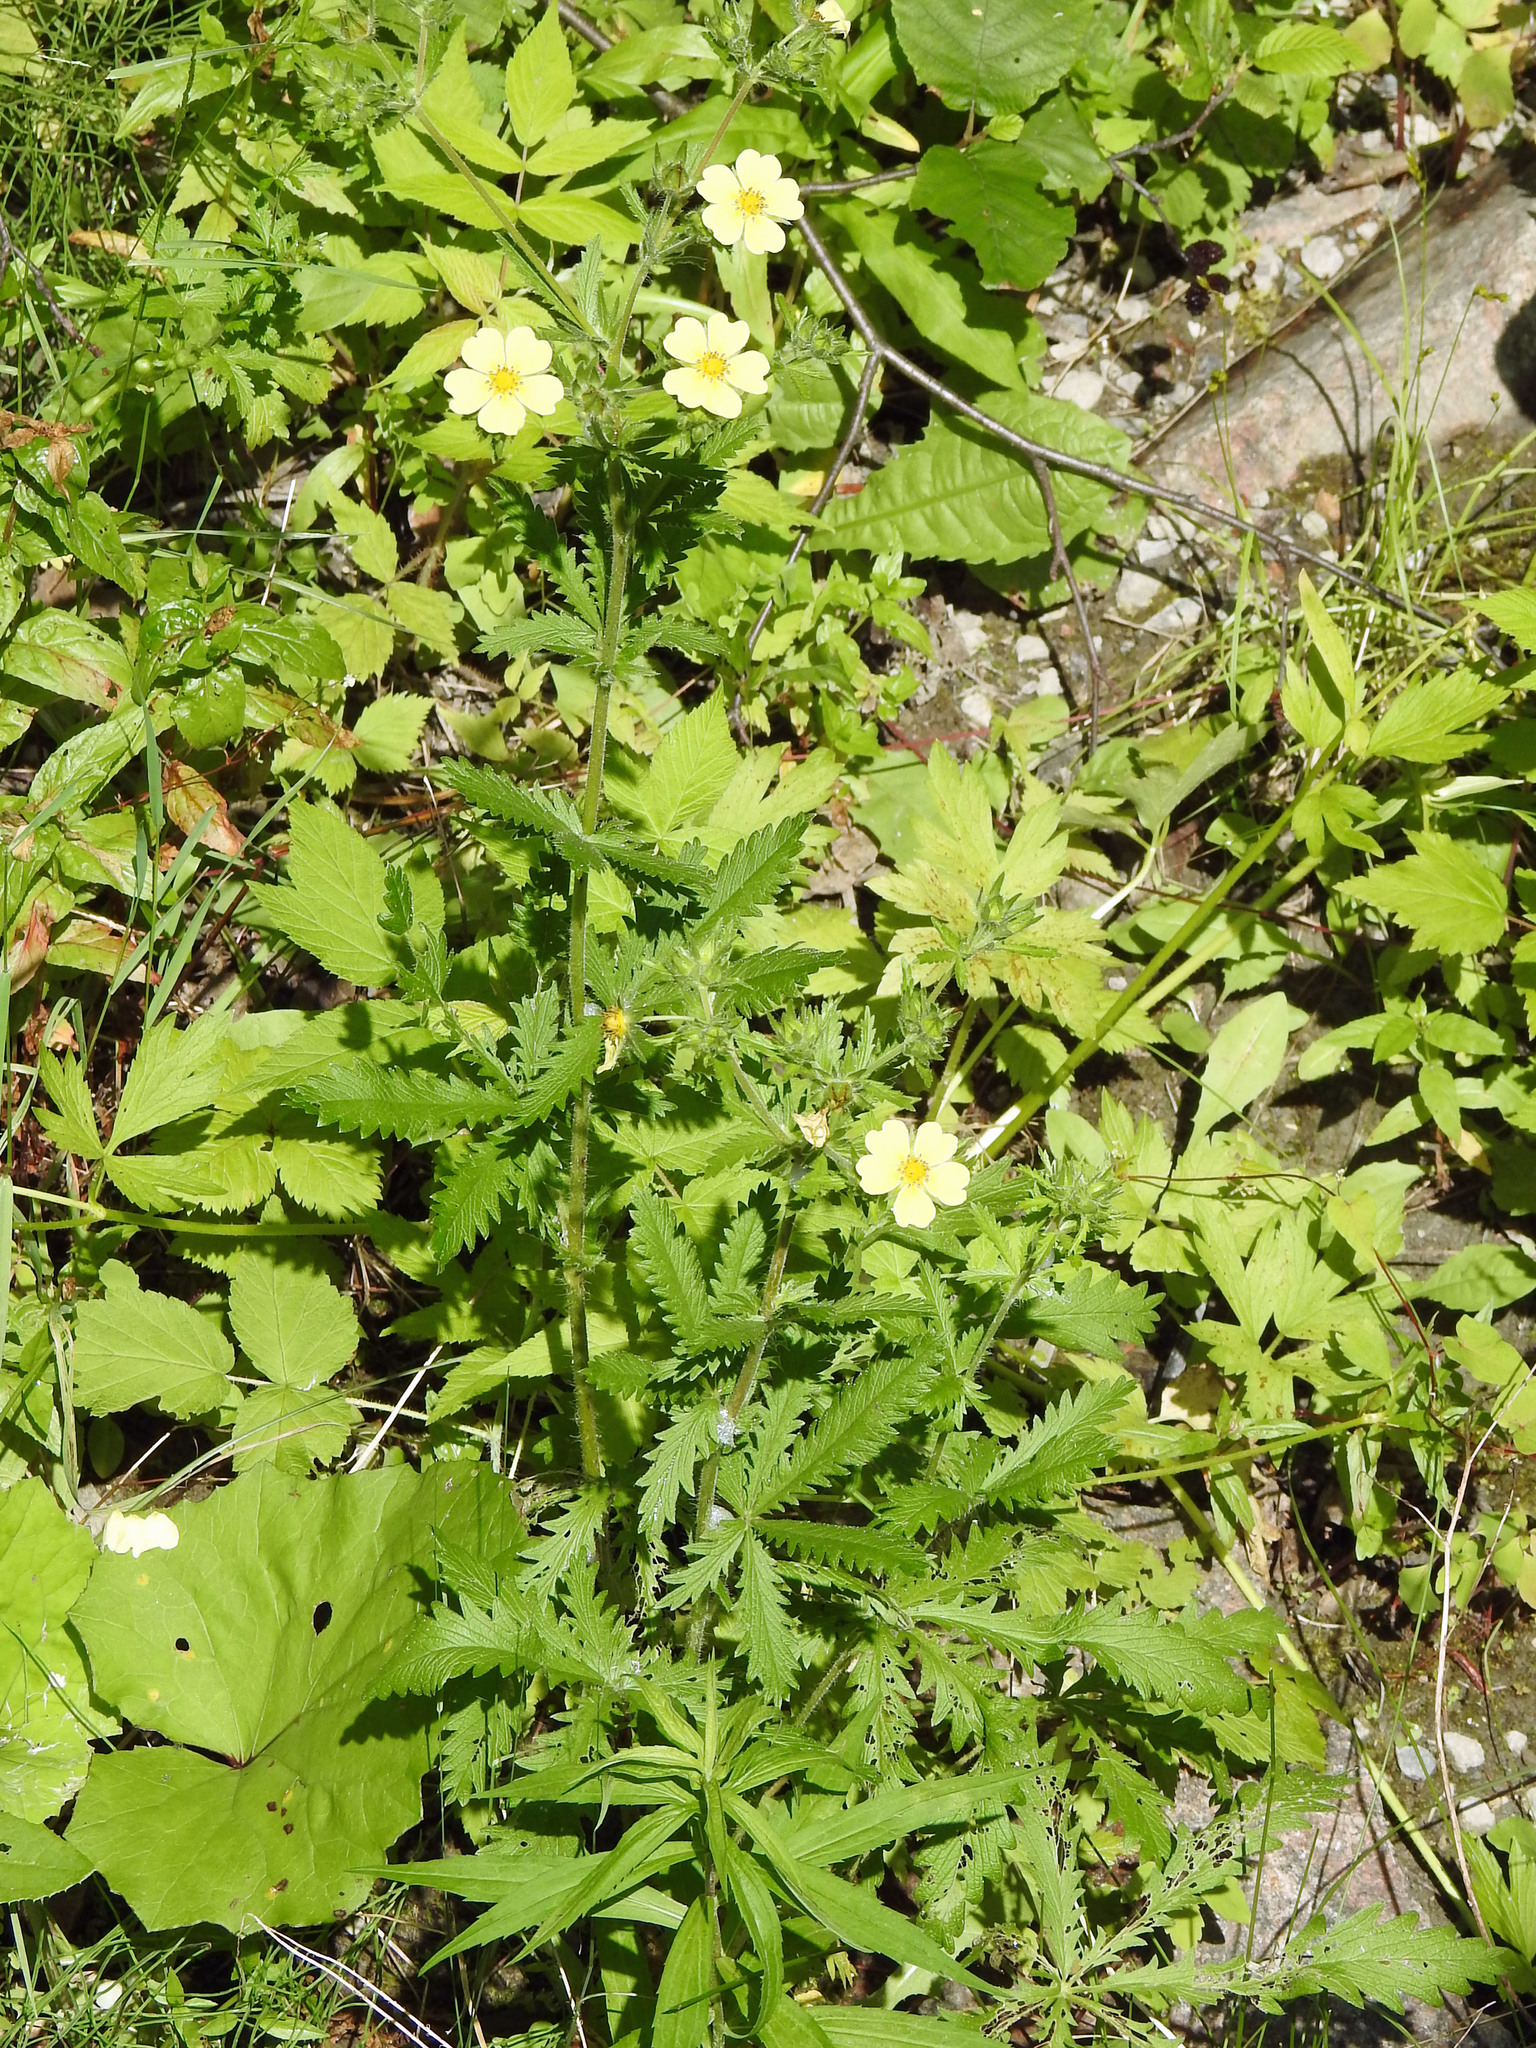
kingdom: Plantae
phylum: Tracheophyta
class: Magnoliopsida
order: Rosales
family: Rosaceae
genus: Potentilla
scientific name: Potentilla recta
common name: Sulphur cinquefoil
